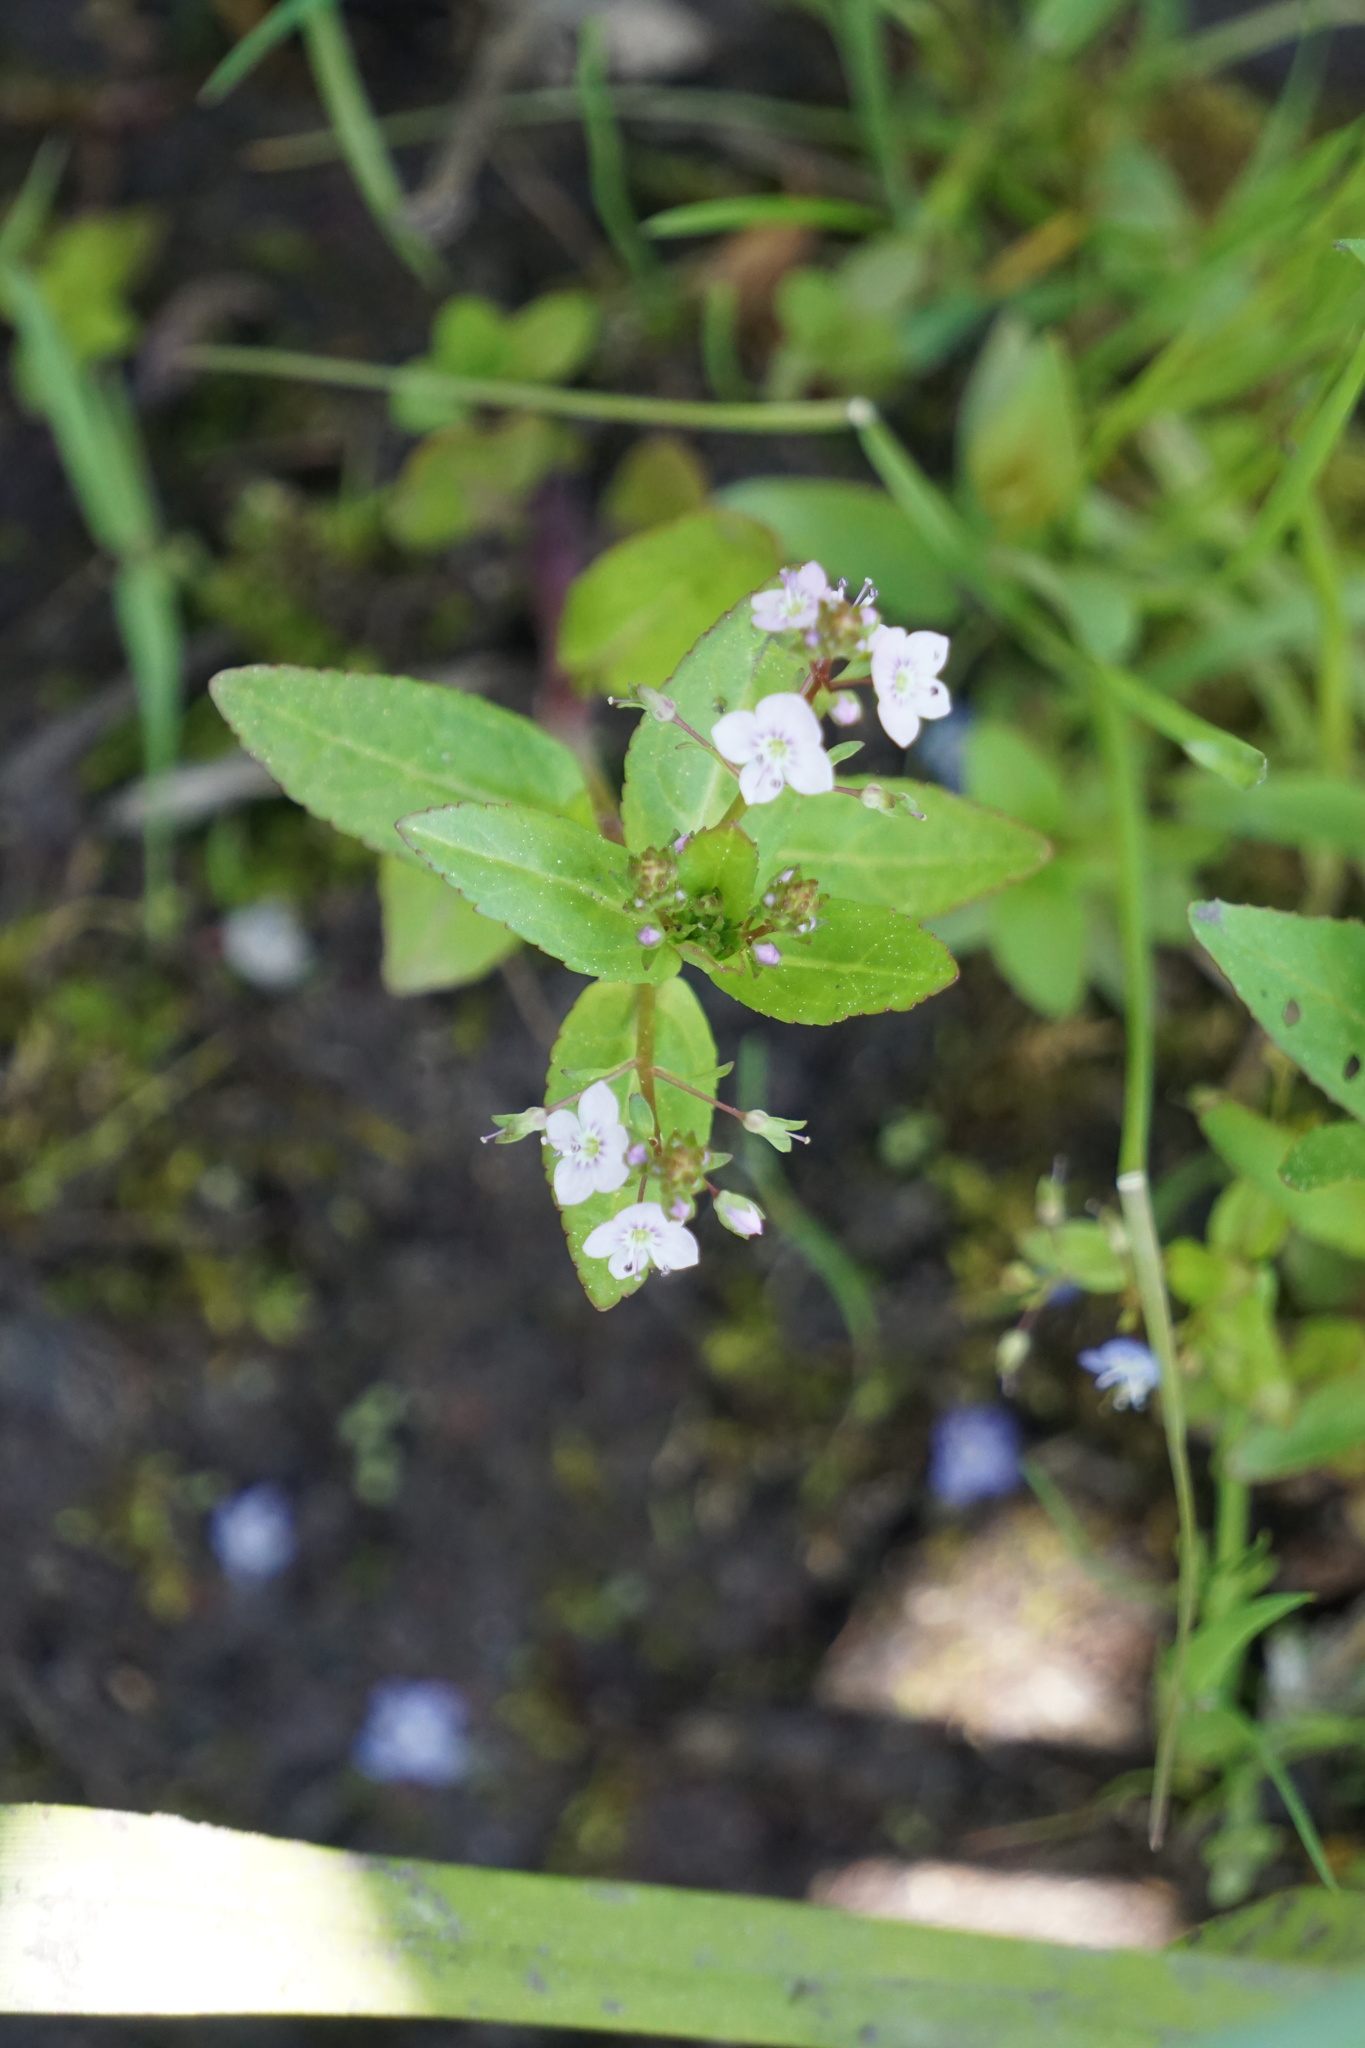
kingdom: Plantae
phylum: Tracheophyta
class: Magnoliopsida
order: Lamiales
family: Plantaginaceae
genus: Veronica
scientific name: Veronica anagallis-aquatica
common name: Water speedwell
